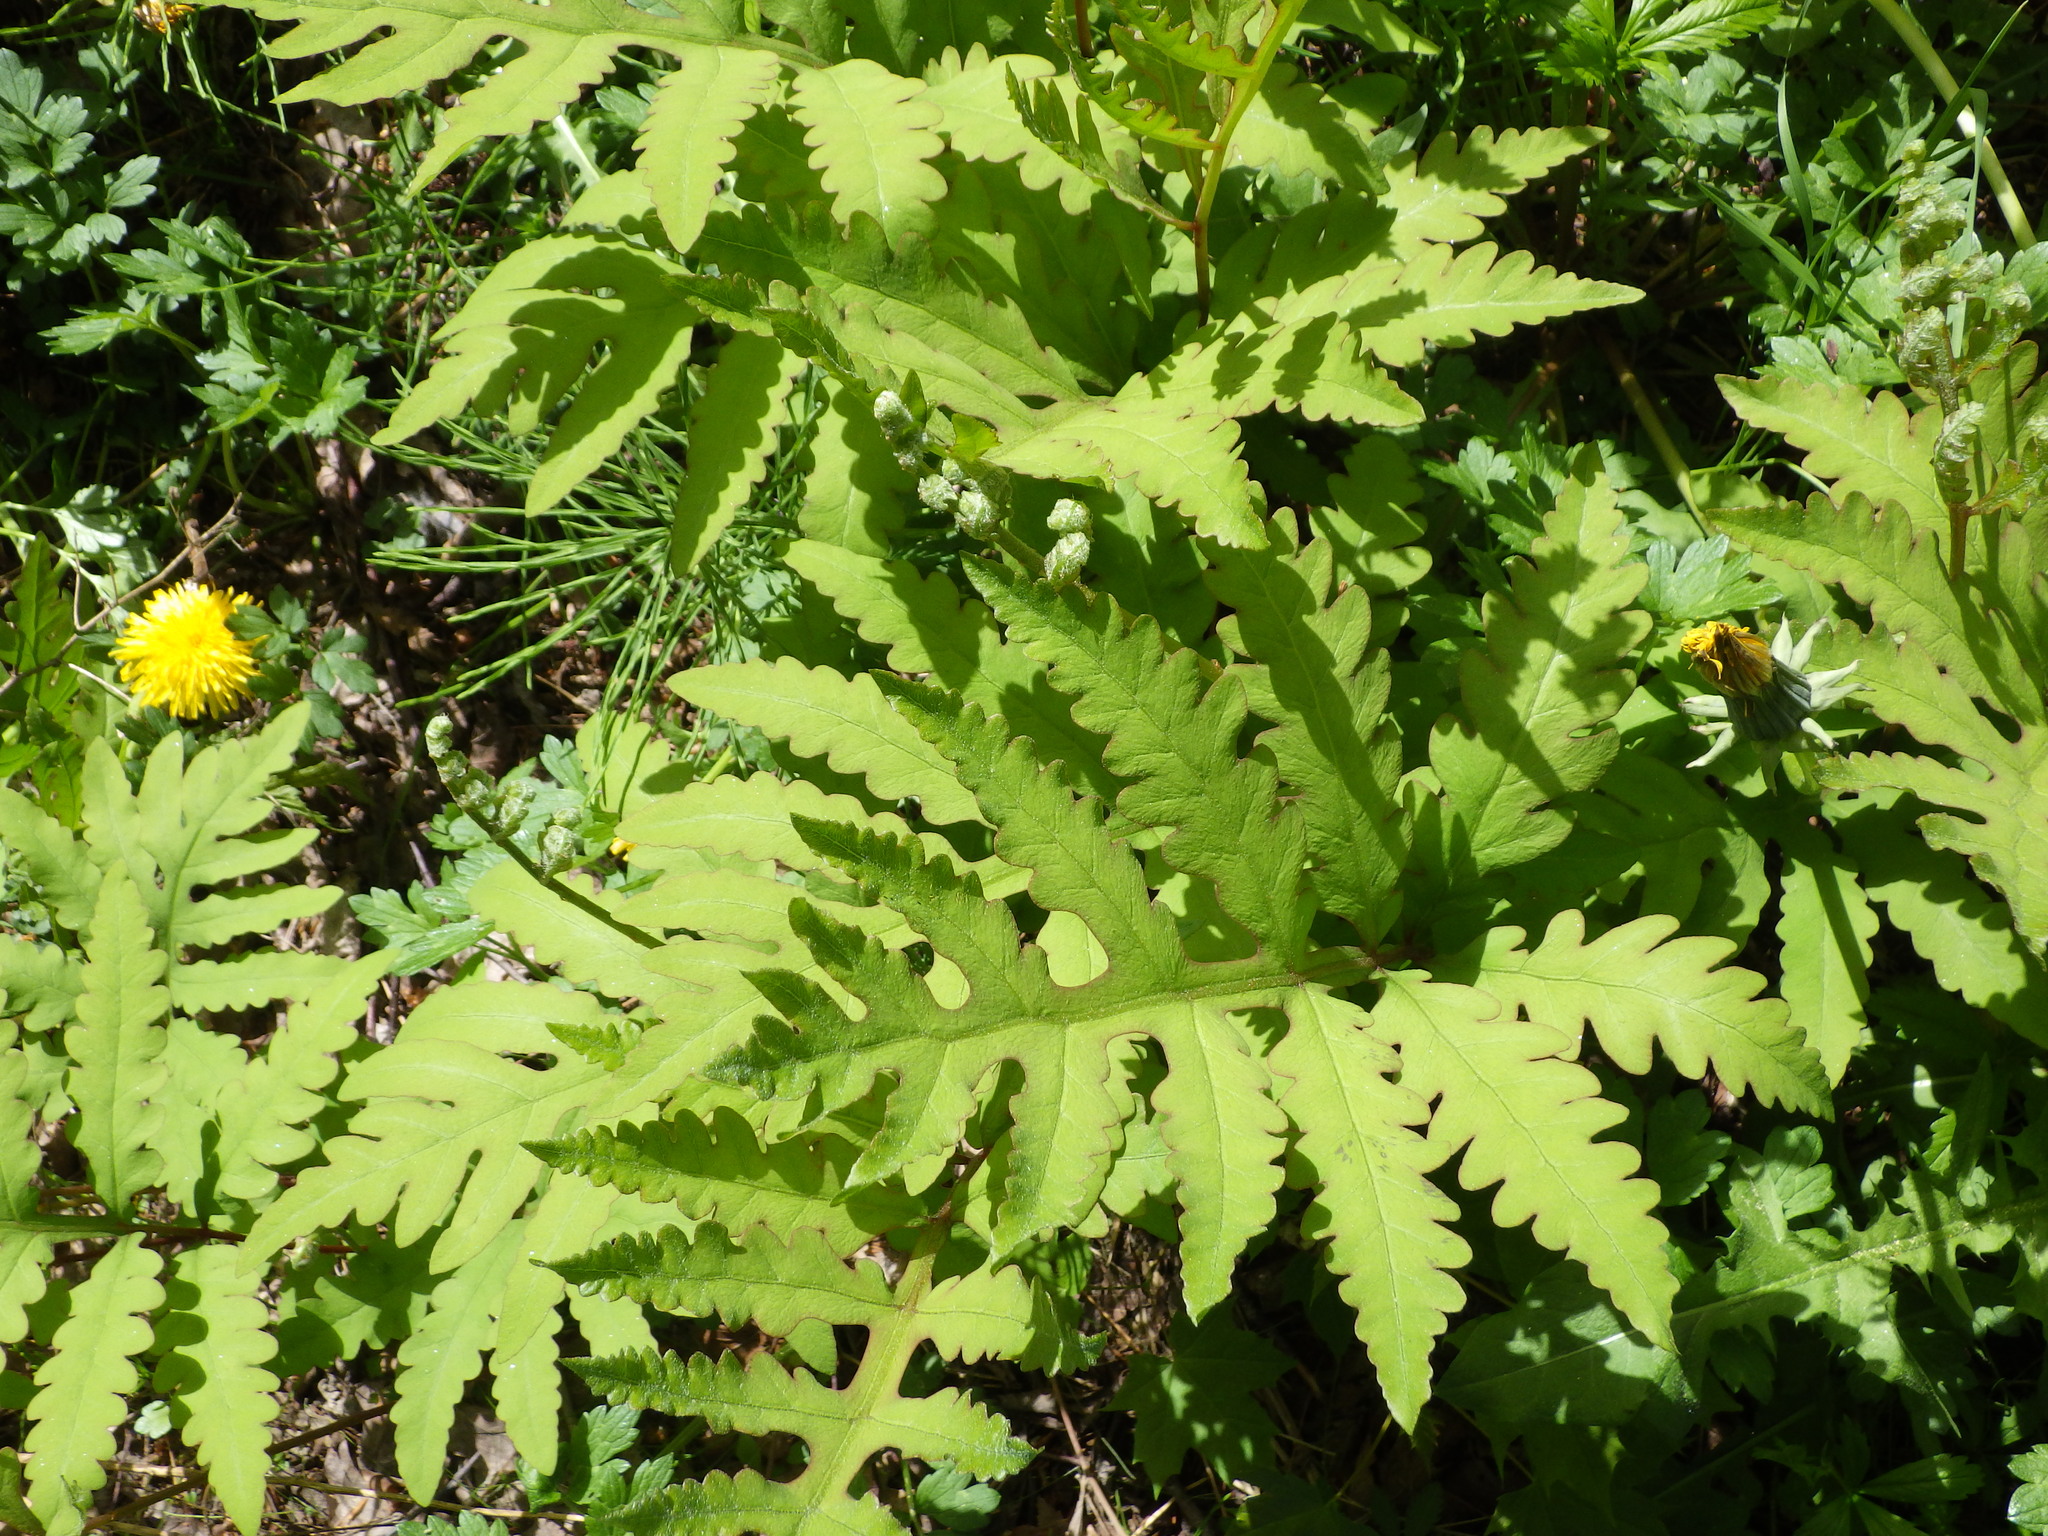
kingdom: Plantae
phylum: Tracheophyta
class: Polypodiopsida
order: Polypodiales
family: Onocleaceae
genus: Onoclea
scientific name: Onoclea sensibilis
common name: Sensitive fern
